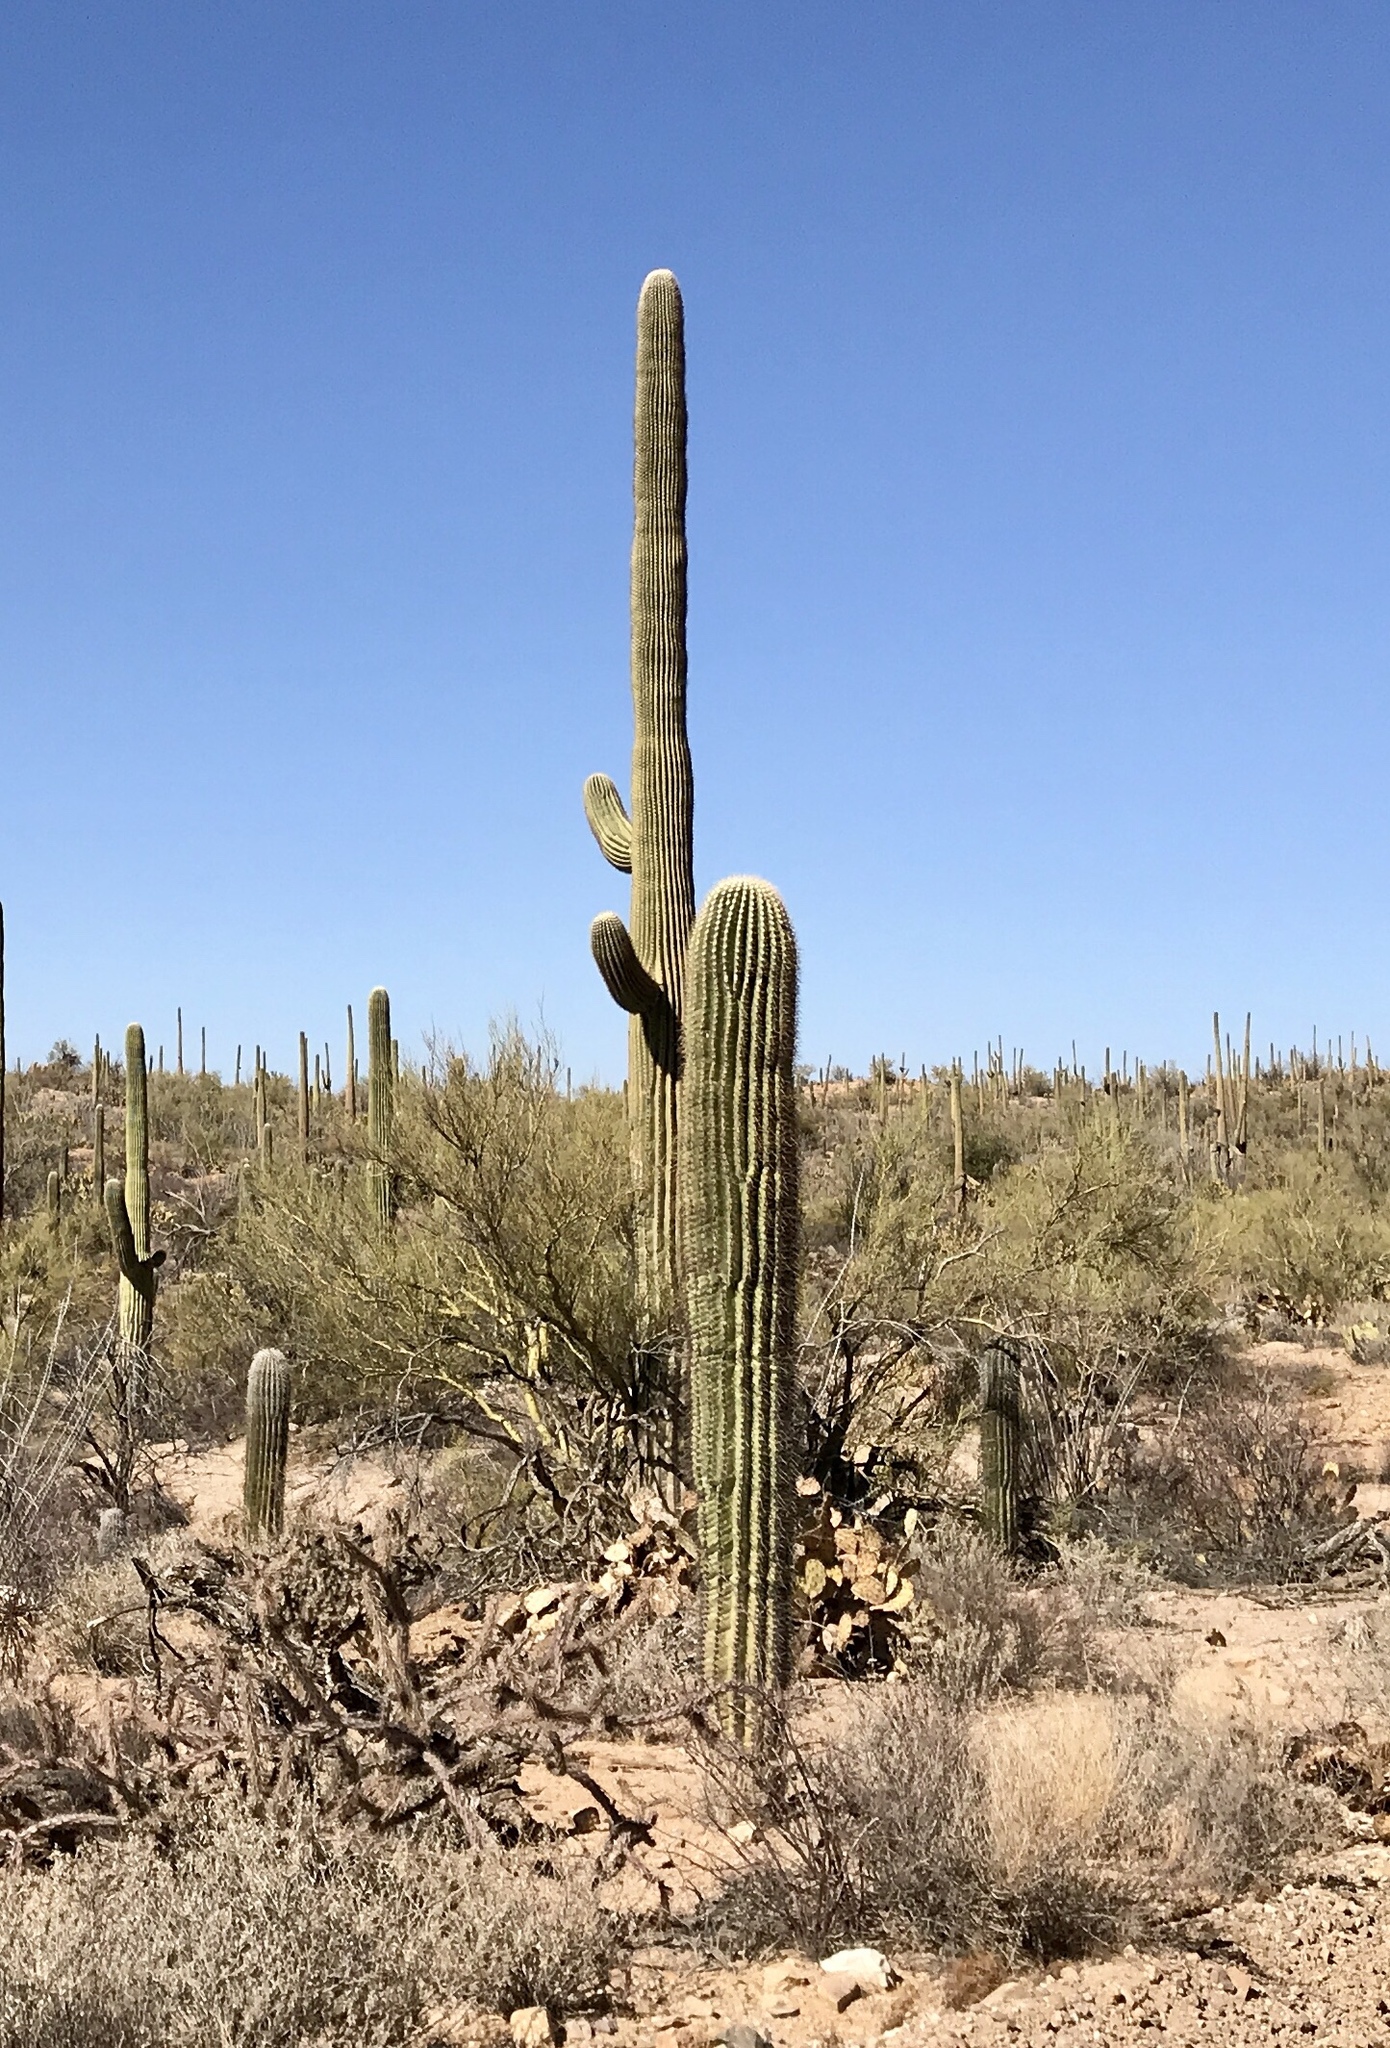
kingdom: Plantae
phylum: Tracheophyta
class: Magnoliopsida
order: Caryophyllales
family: Cactaceae
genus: Carnegiea
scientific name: Carnegiea gigantea
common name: Saguaro
